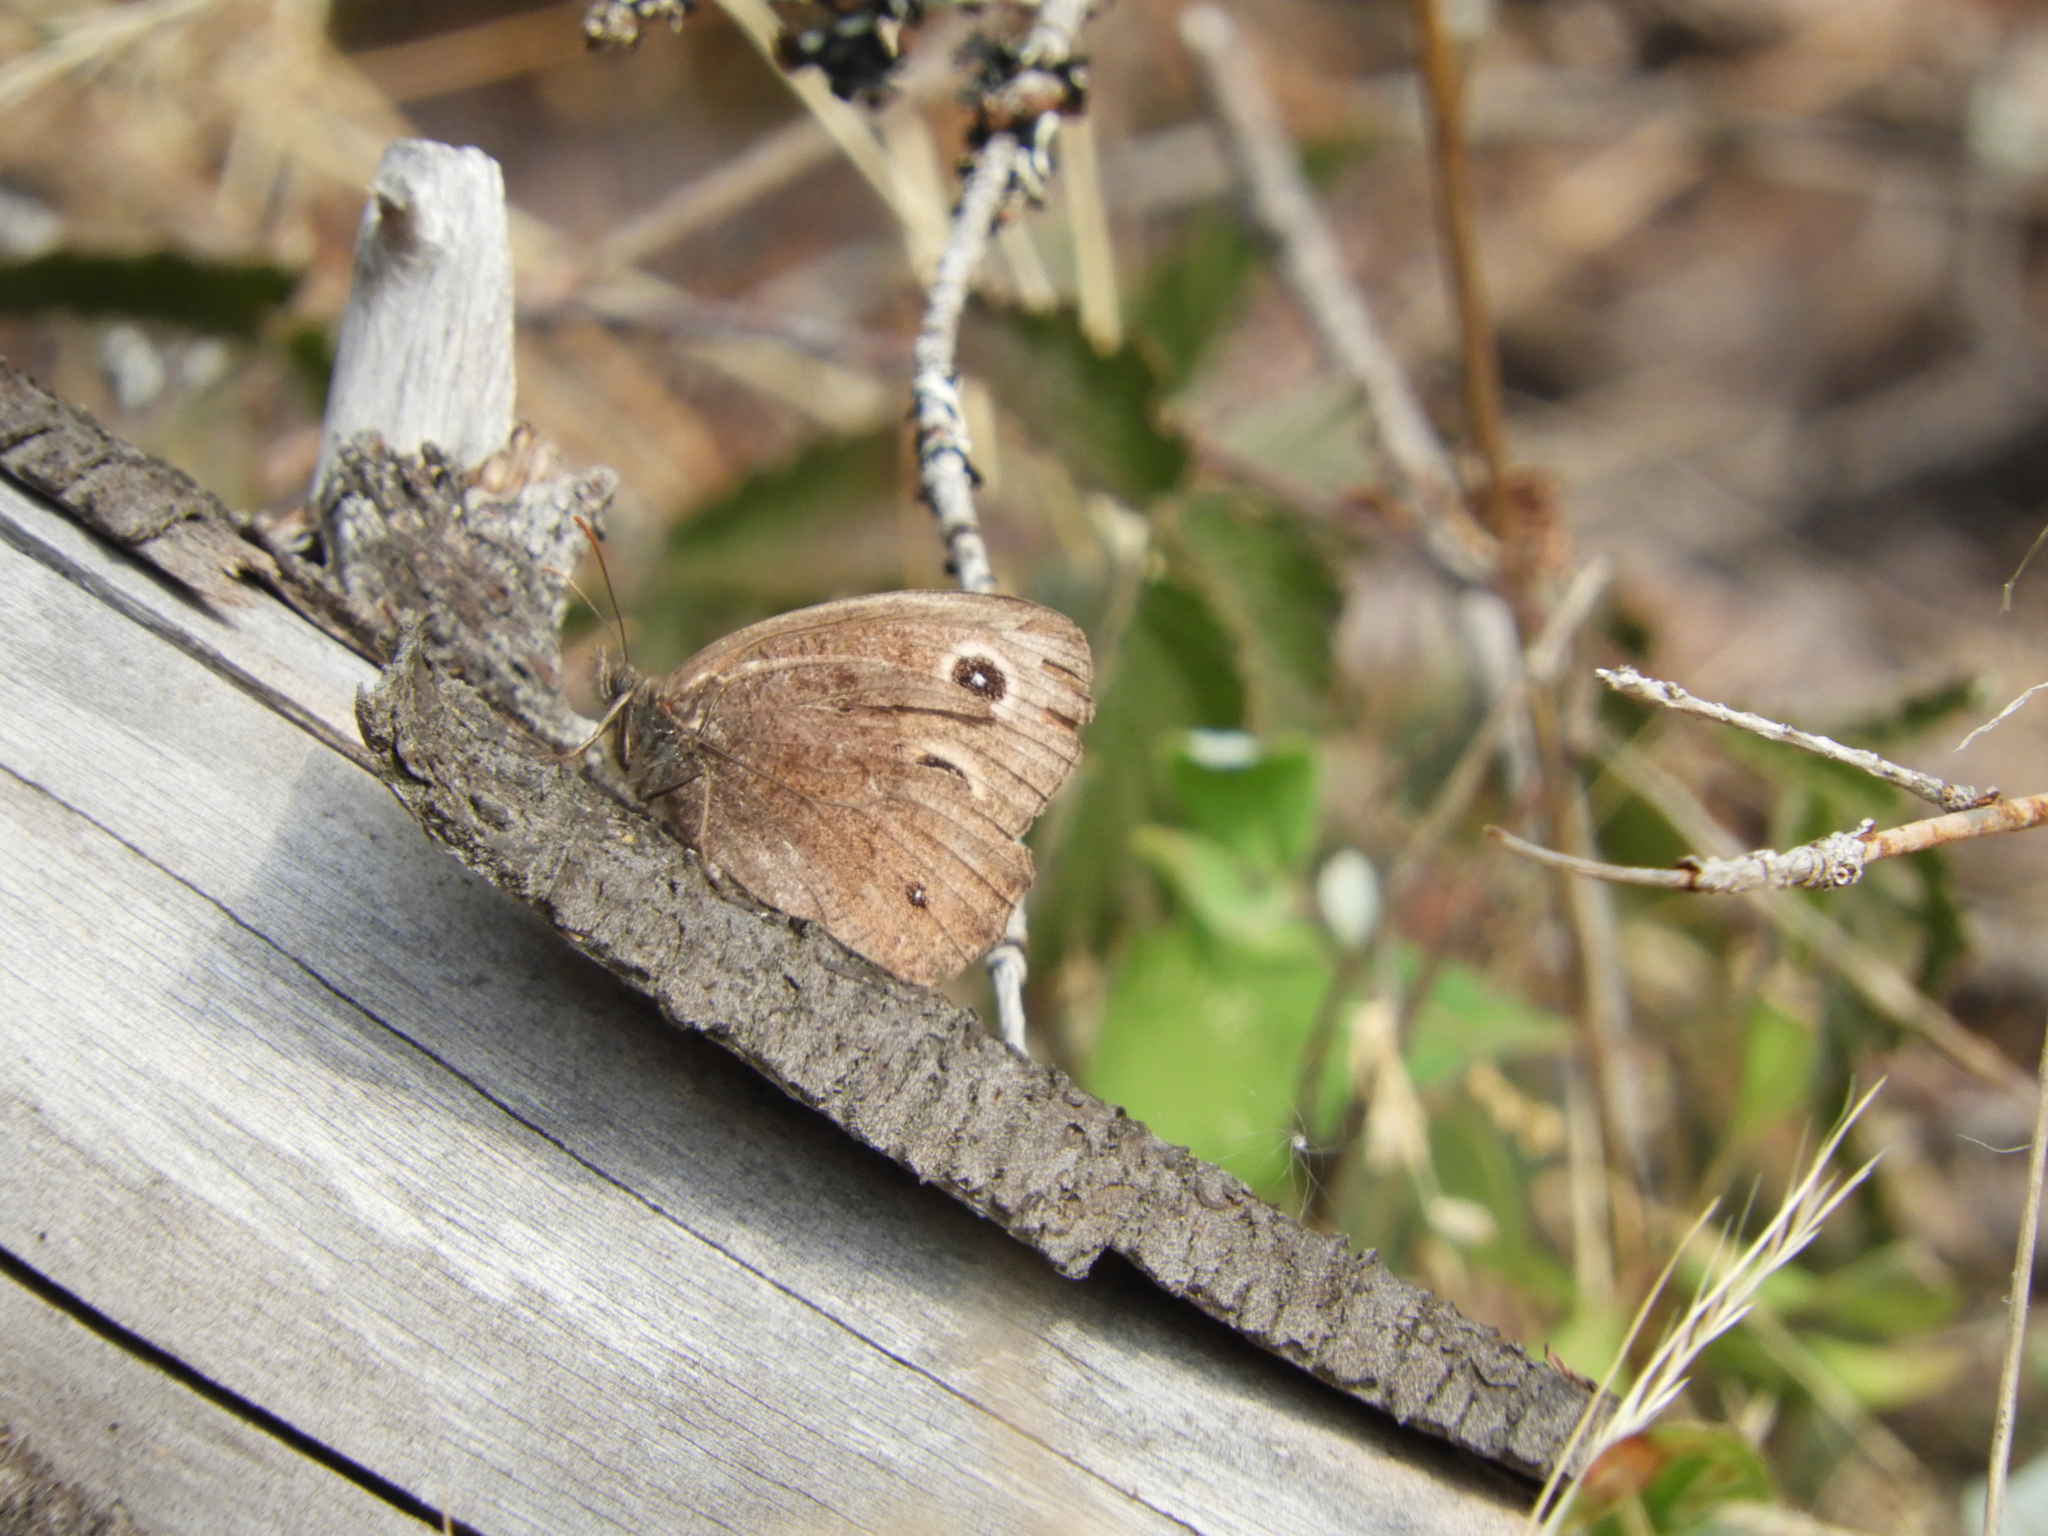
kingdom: Animalia
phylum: Arthropoda
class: Insecta
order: Lepidoptera
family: Nymphalidae
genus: Cercyonis
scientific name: Cercyonis pegala
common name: Common wood-nymph
